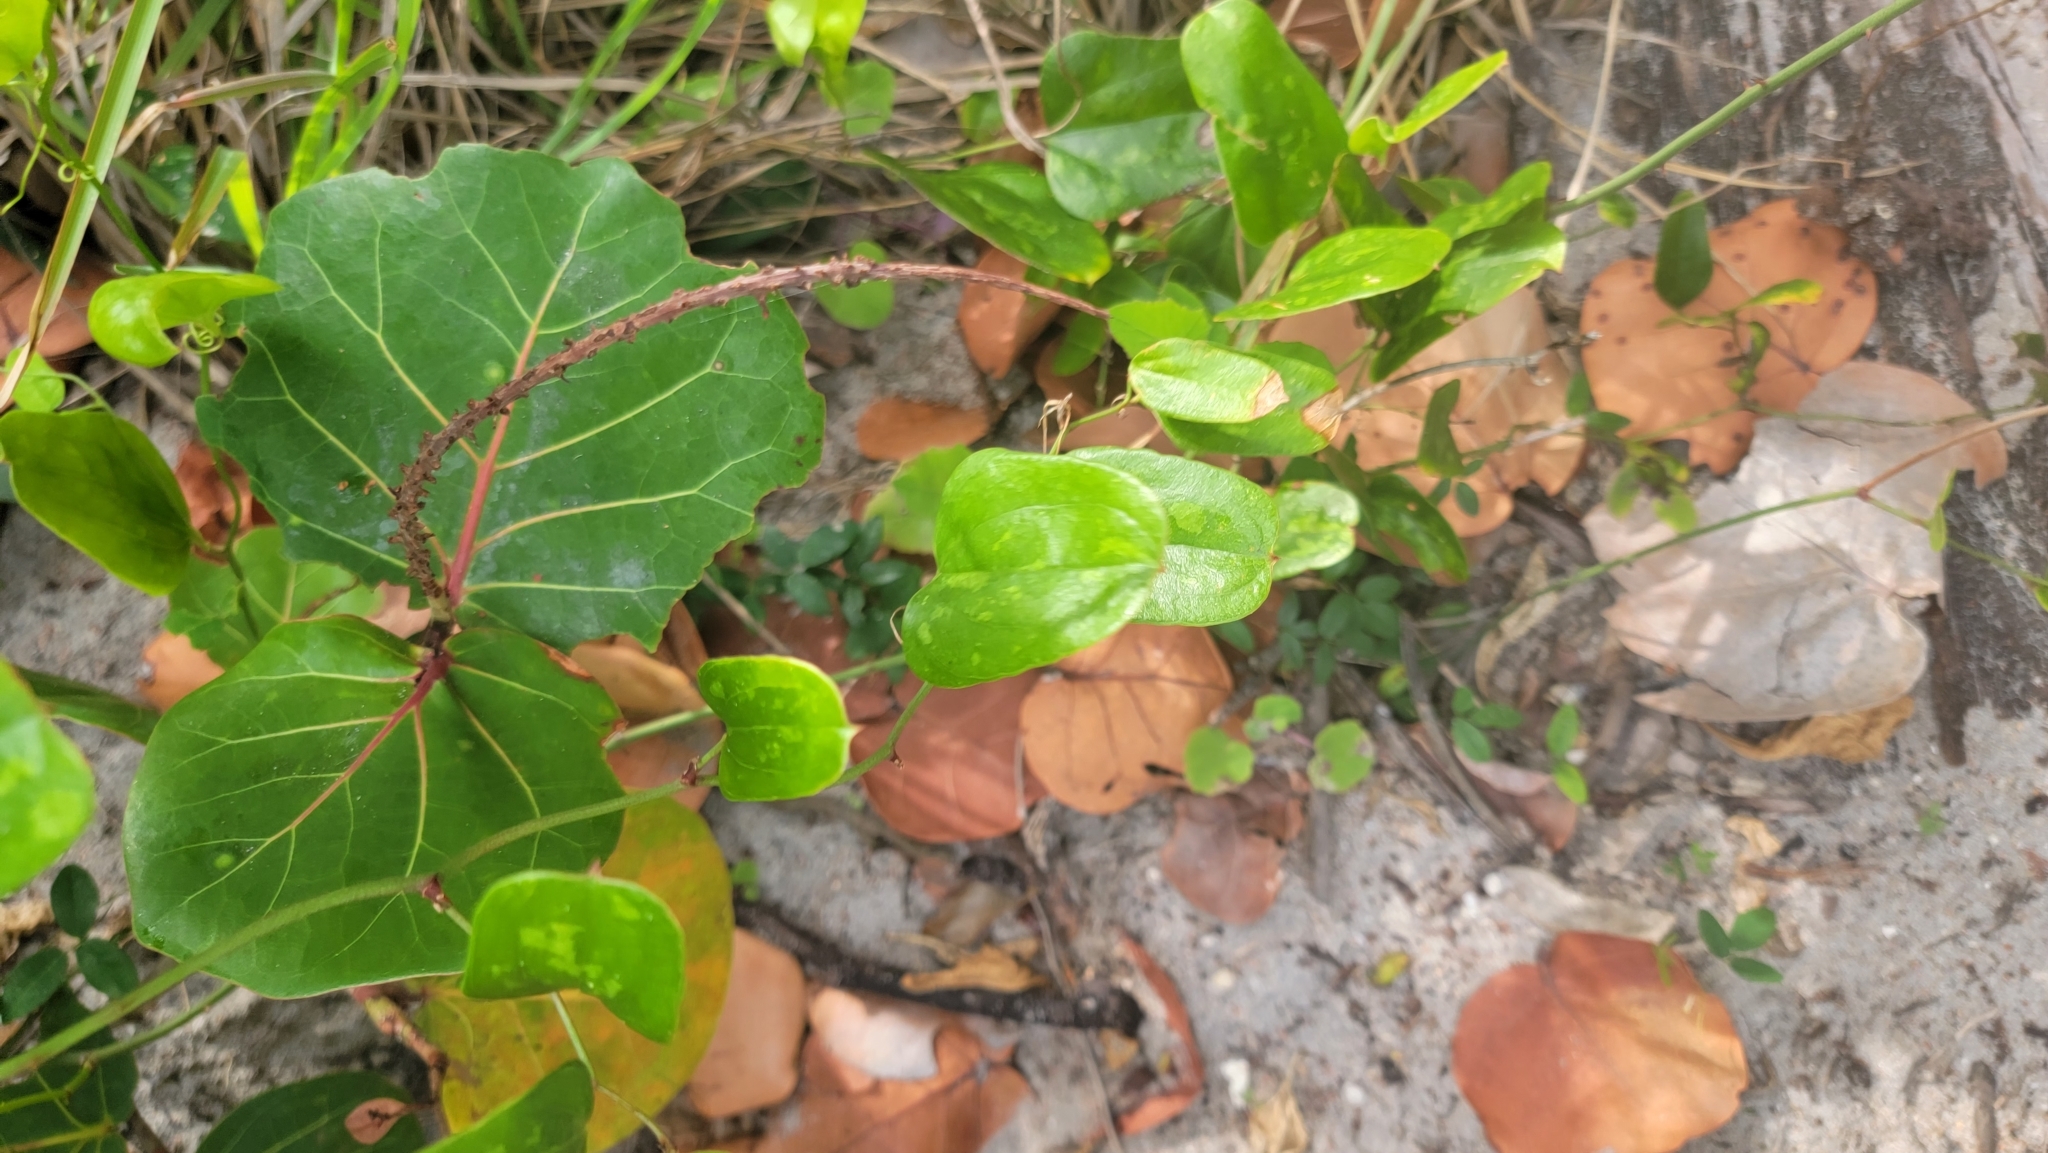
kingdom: Plantae
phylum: Tracheophyta
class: Liliopsida
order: Liliales
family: Smilacaceae
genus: Smilax
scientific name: Smilax auriculata
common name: Wild bamboo
